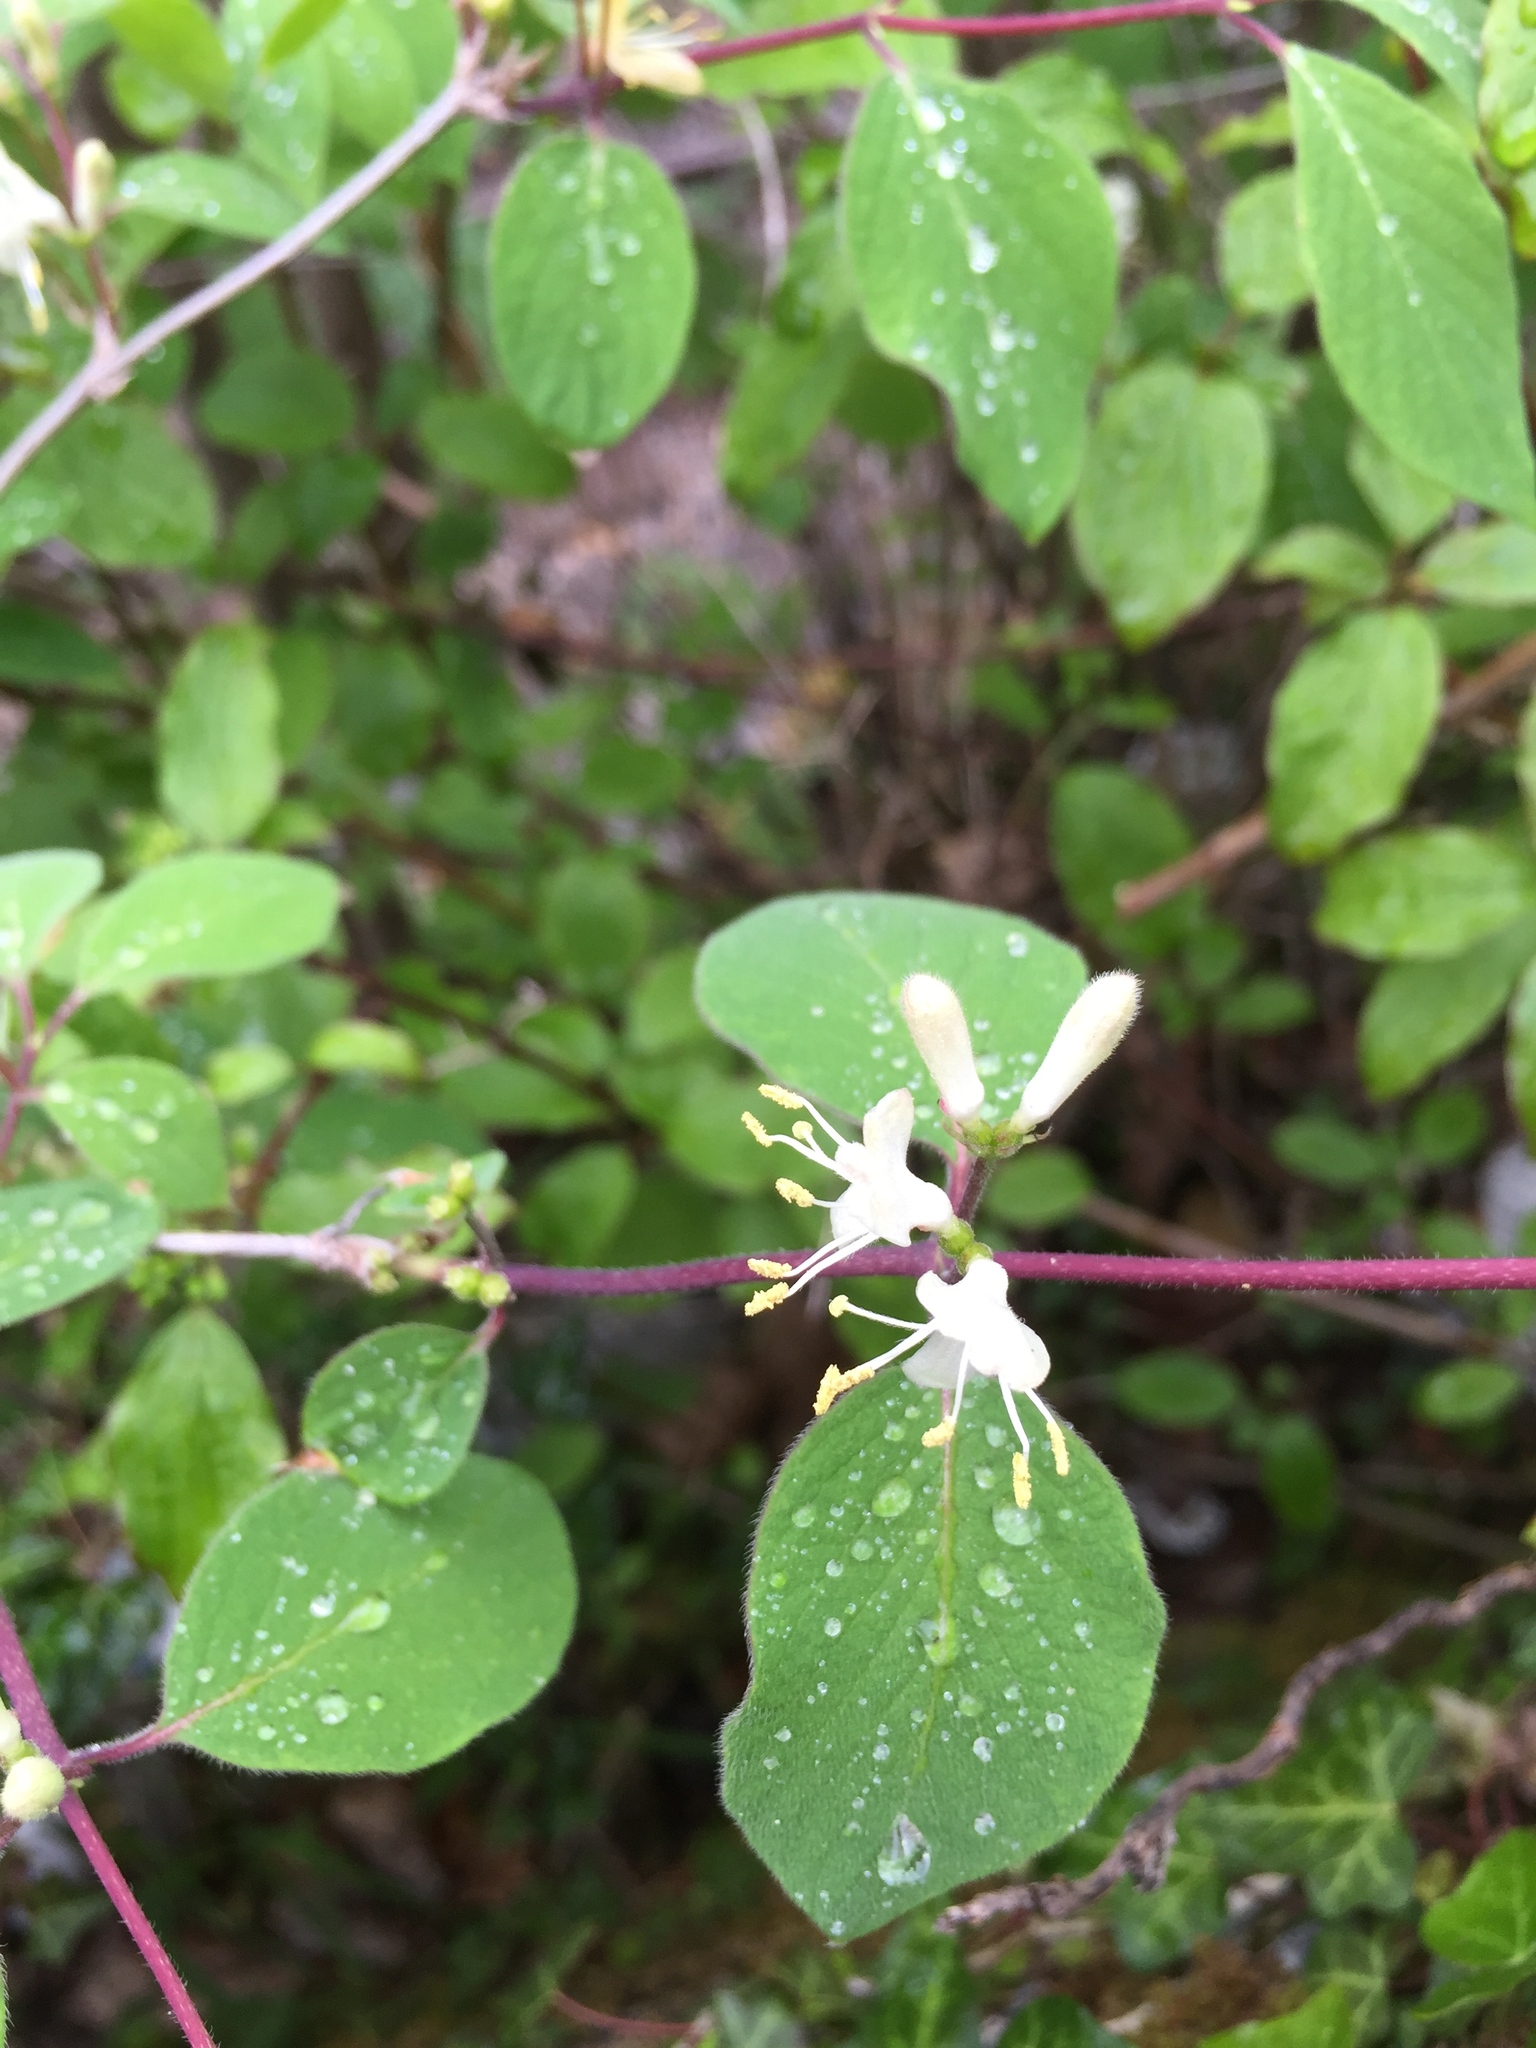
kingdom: Plantae
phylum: Tracheophyta
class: Magnoliopsida
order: Dipsacales
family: Caprifoliaceae
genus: Lonicera
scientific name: Lonicera xylosteum
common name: Fly honeysuckle
